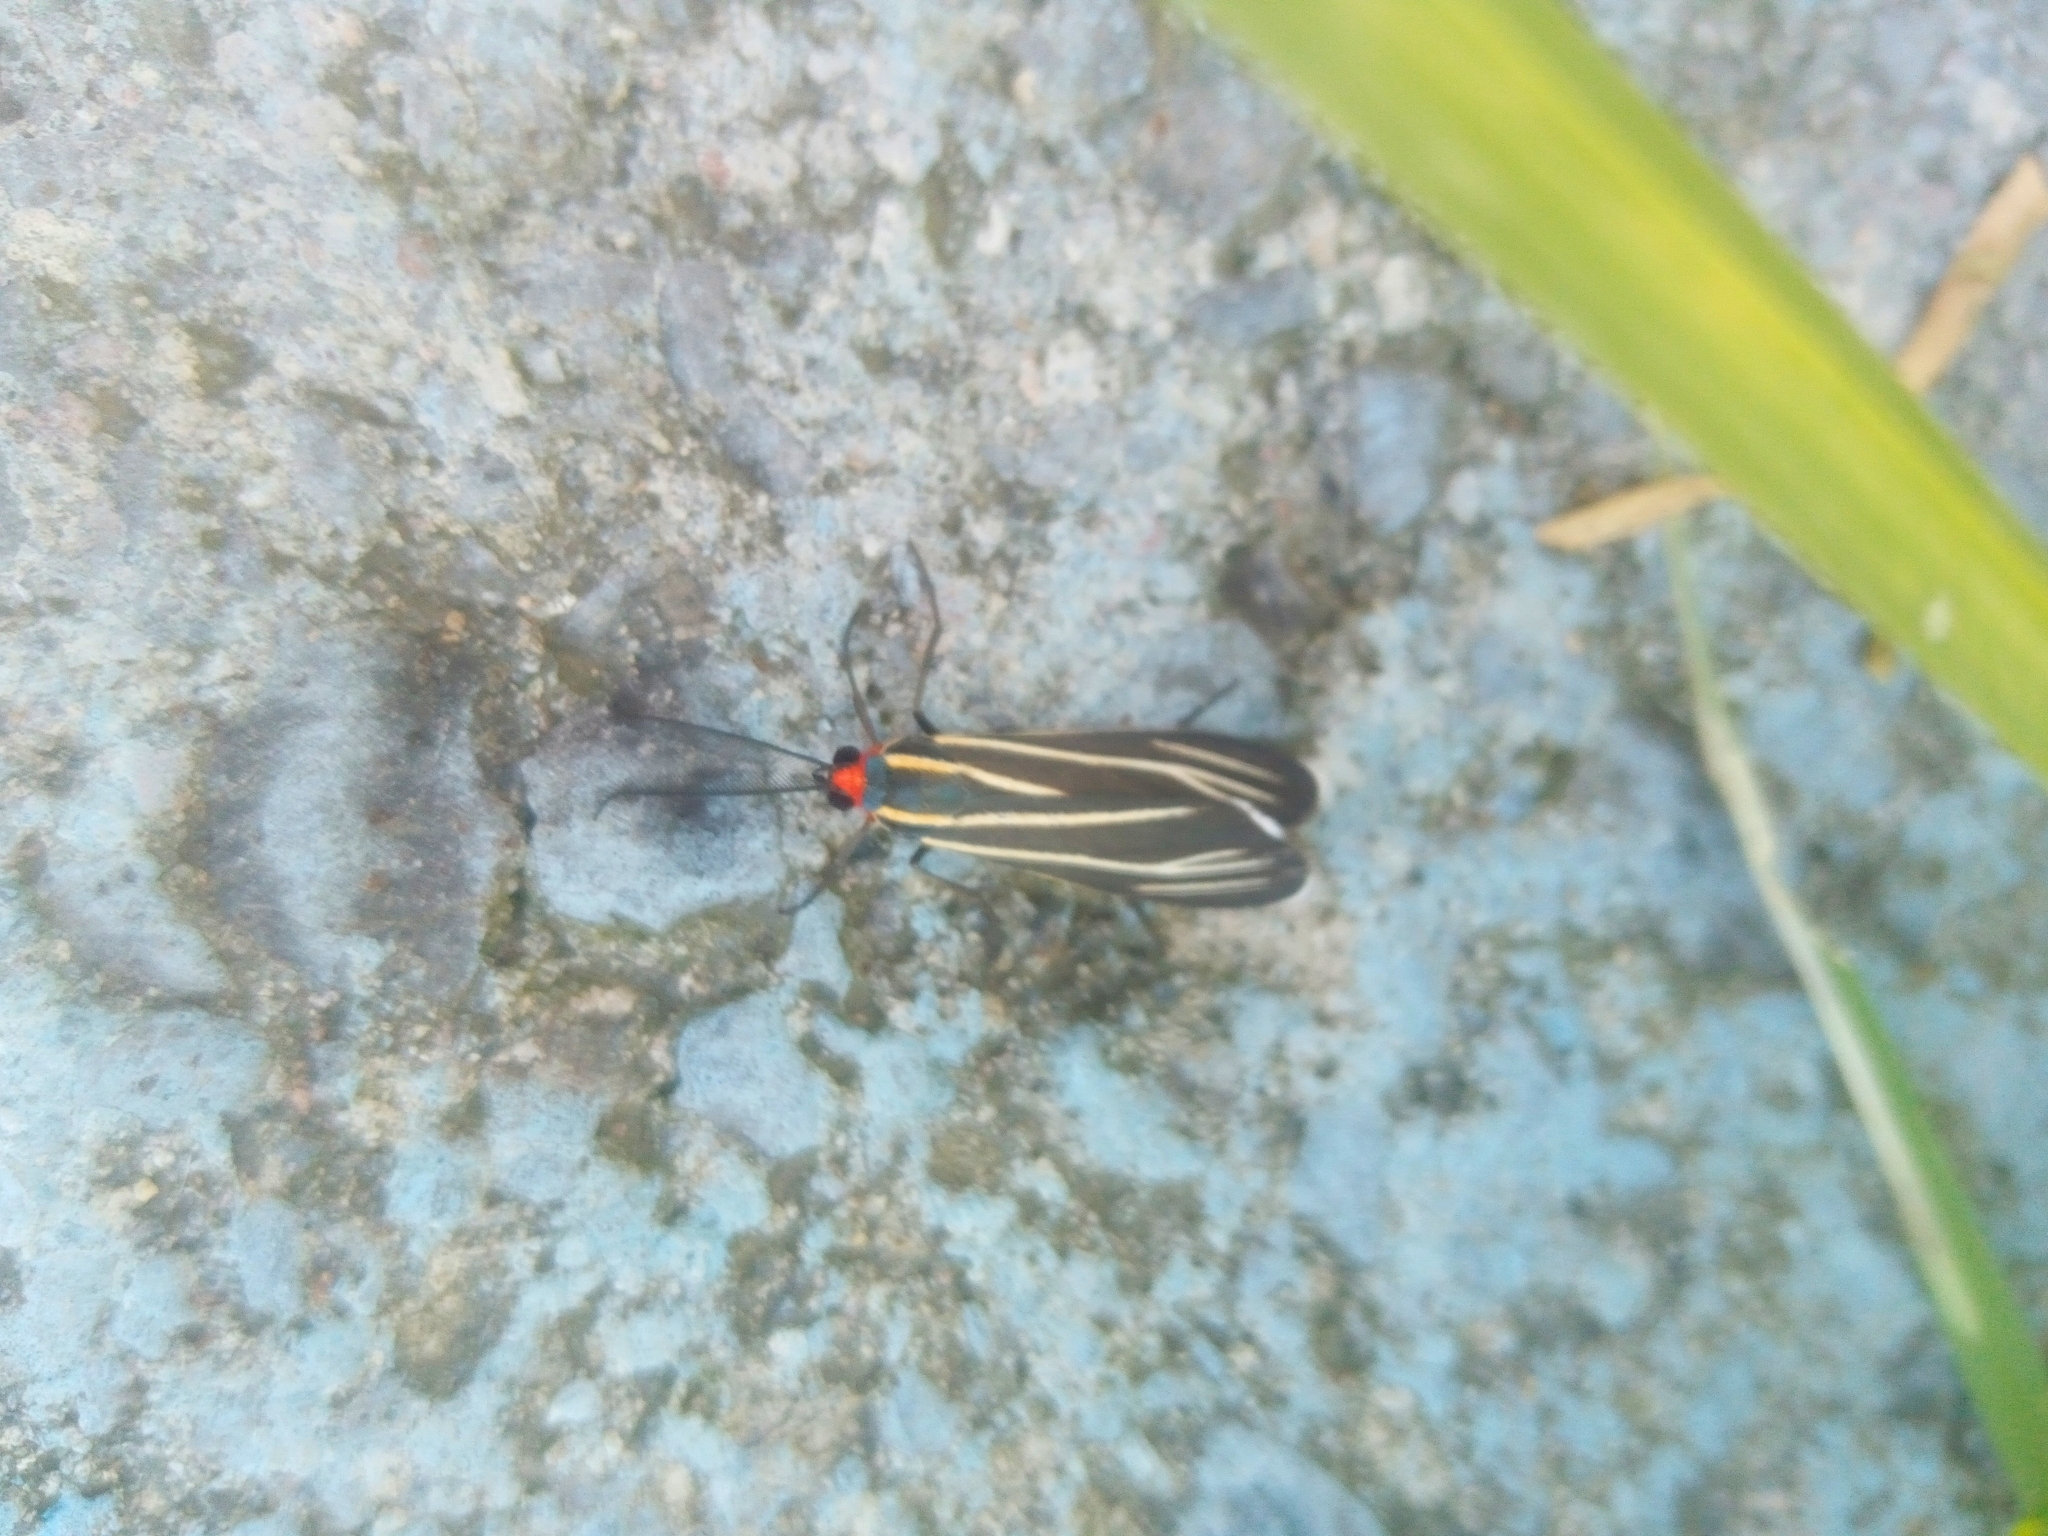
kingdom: Animalia
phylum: Arthropoda
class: Insecta
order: Lepidoptera
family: Erebidae
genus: Ctenucha
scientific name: Ctenucha venosa
